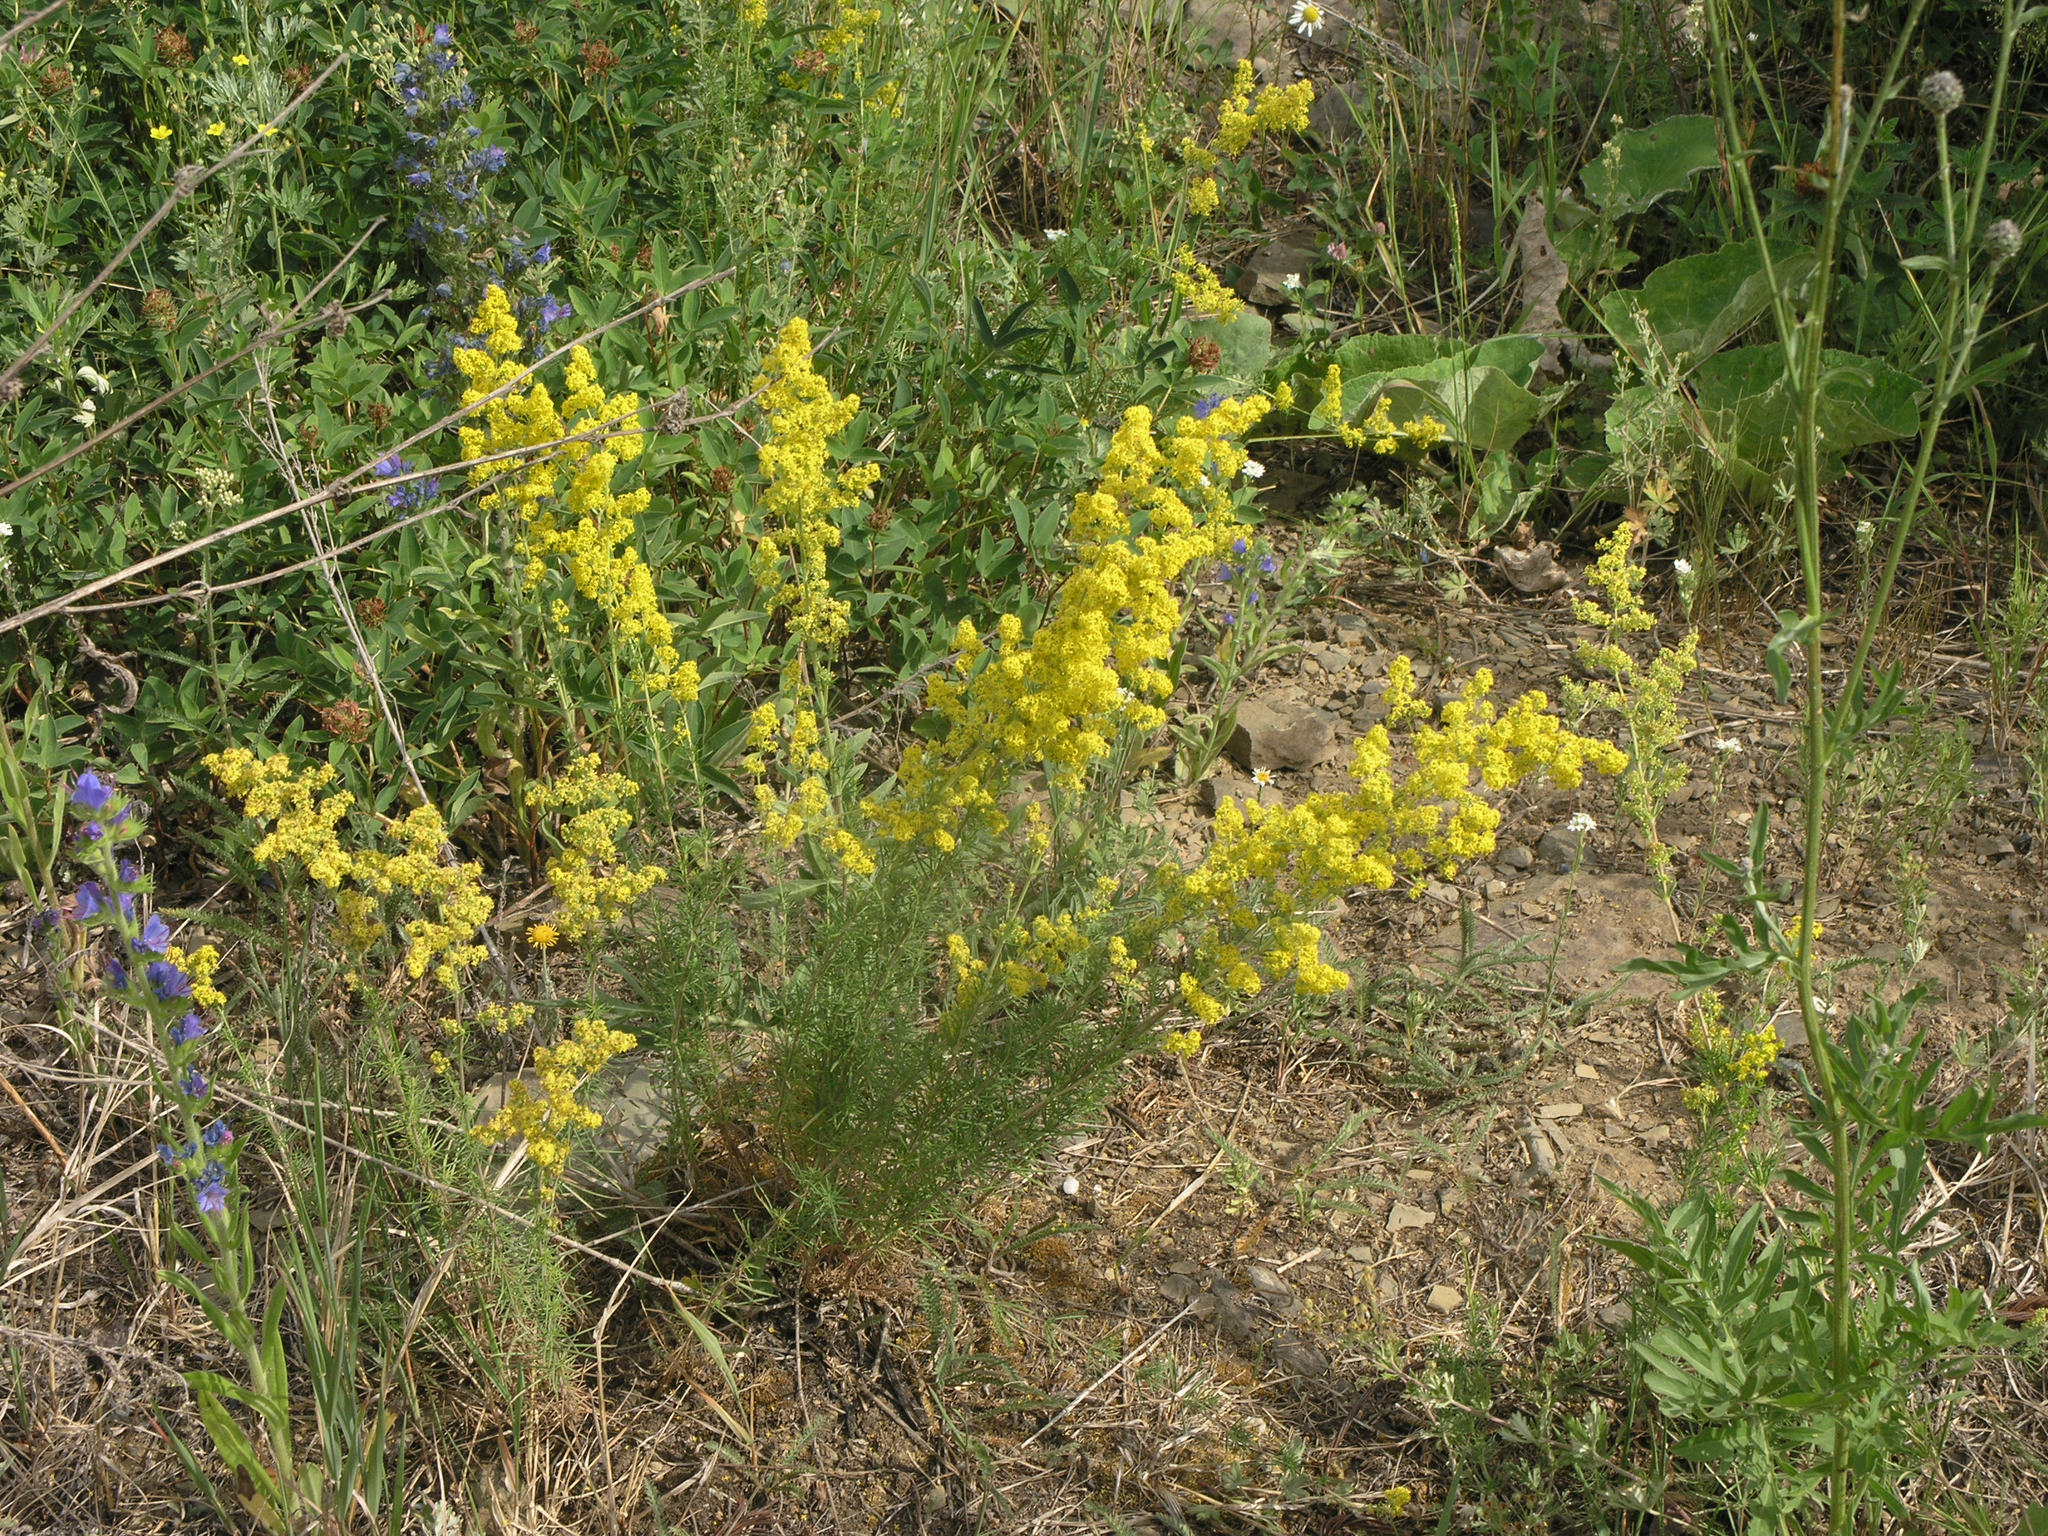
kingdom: Plantae
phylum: Tracheophyta
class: Magnoliopsida
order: Gentianales
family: Rubiaceae
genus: Galium
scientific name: Galium verum
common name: Lady's bedstraw
